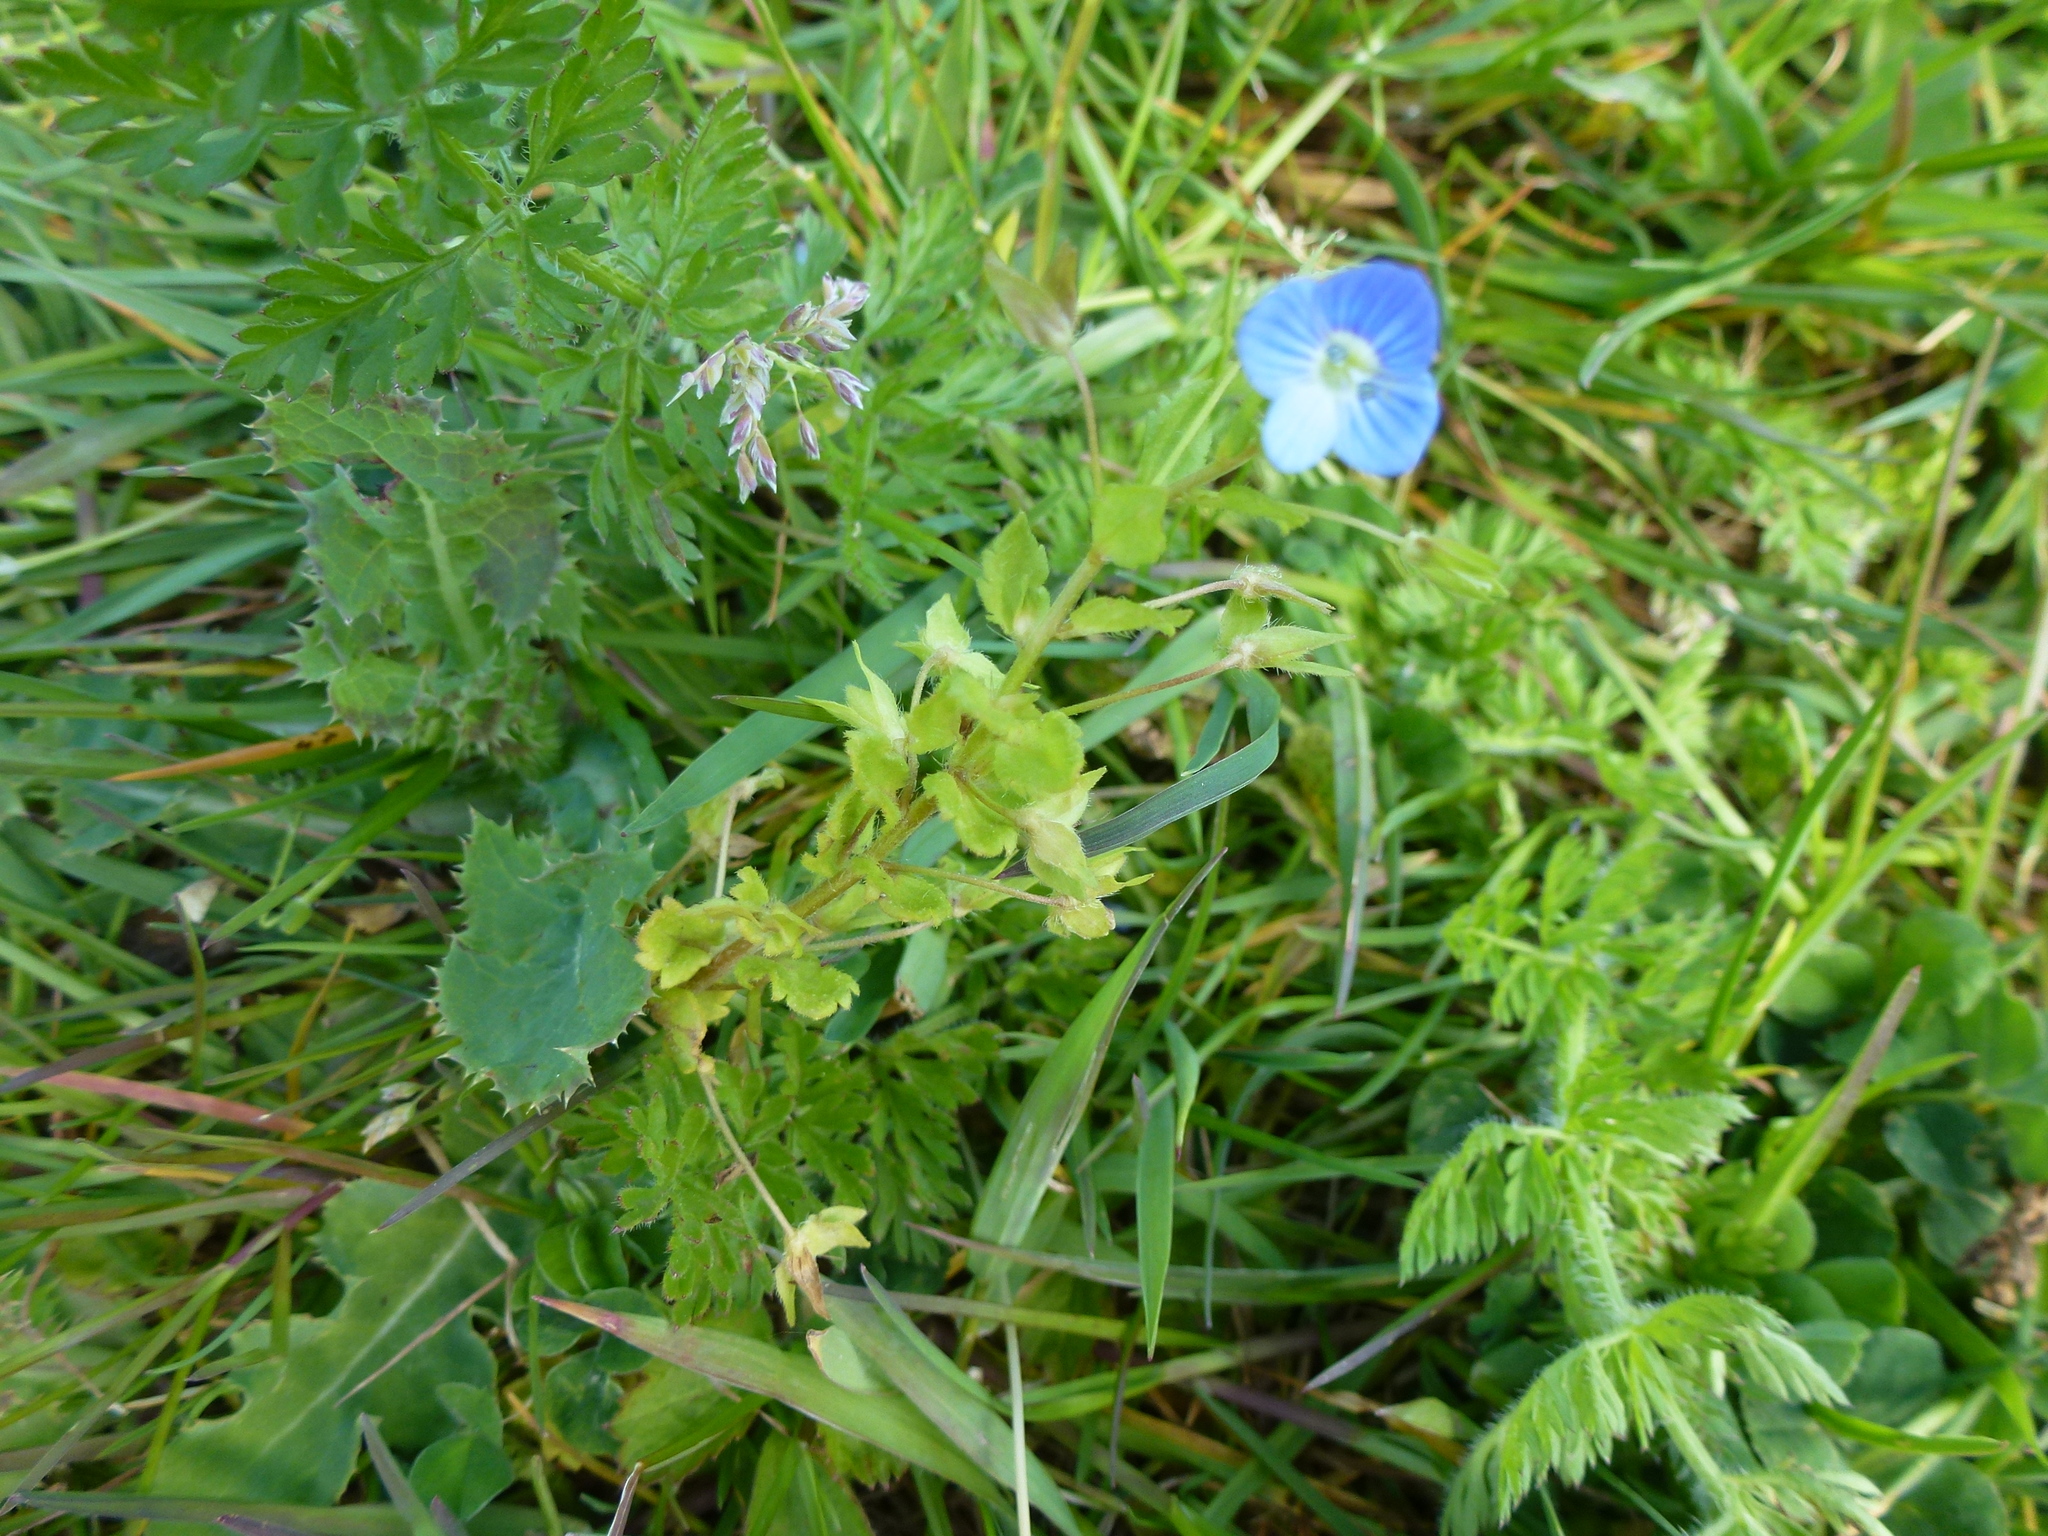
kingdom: Plantae
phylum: Tracheophyta
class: Magnoliopsida
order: Lamiales
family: Plantaginaceae
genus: Veronica
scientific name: Veronica persica
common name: Common field-speedwell
